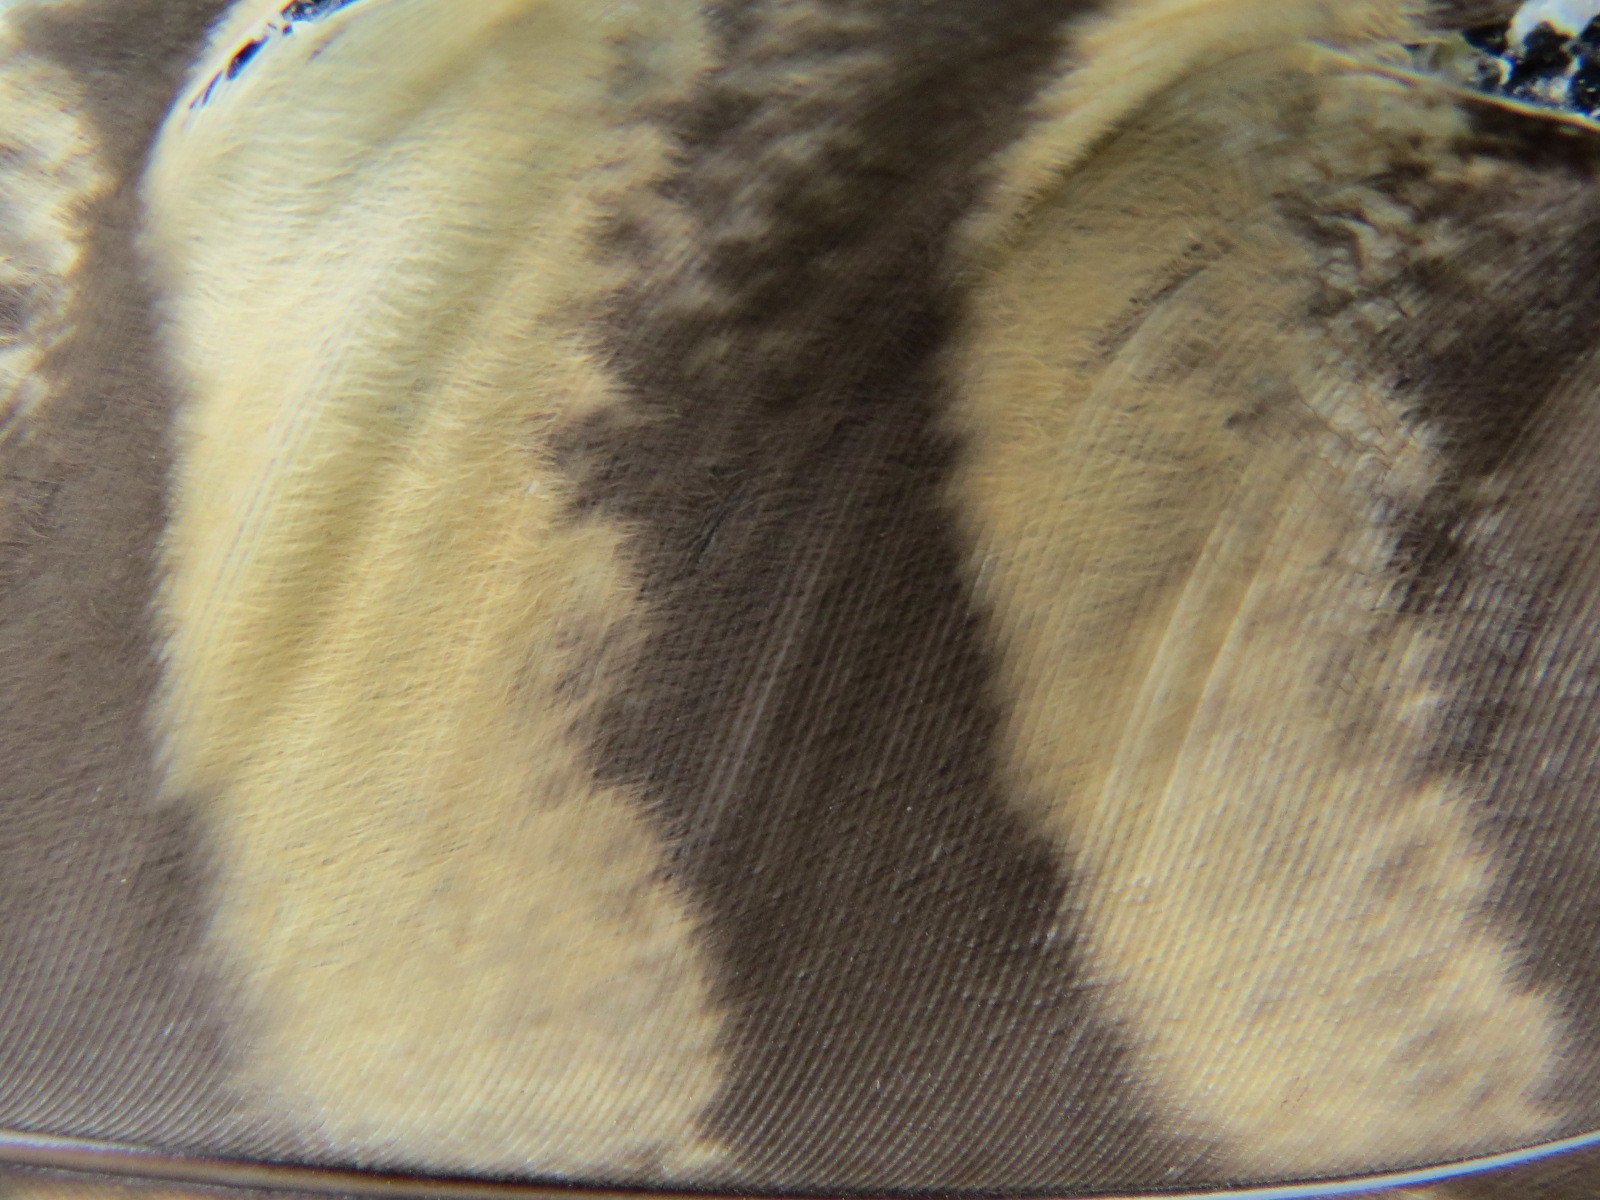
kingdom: Animalia
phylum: Chordata
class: Aves
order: Strigiformes
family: Strigidae
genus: Bubo
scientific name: Bubo virginianus
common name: Great horned owl
